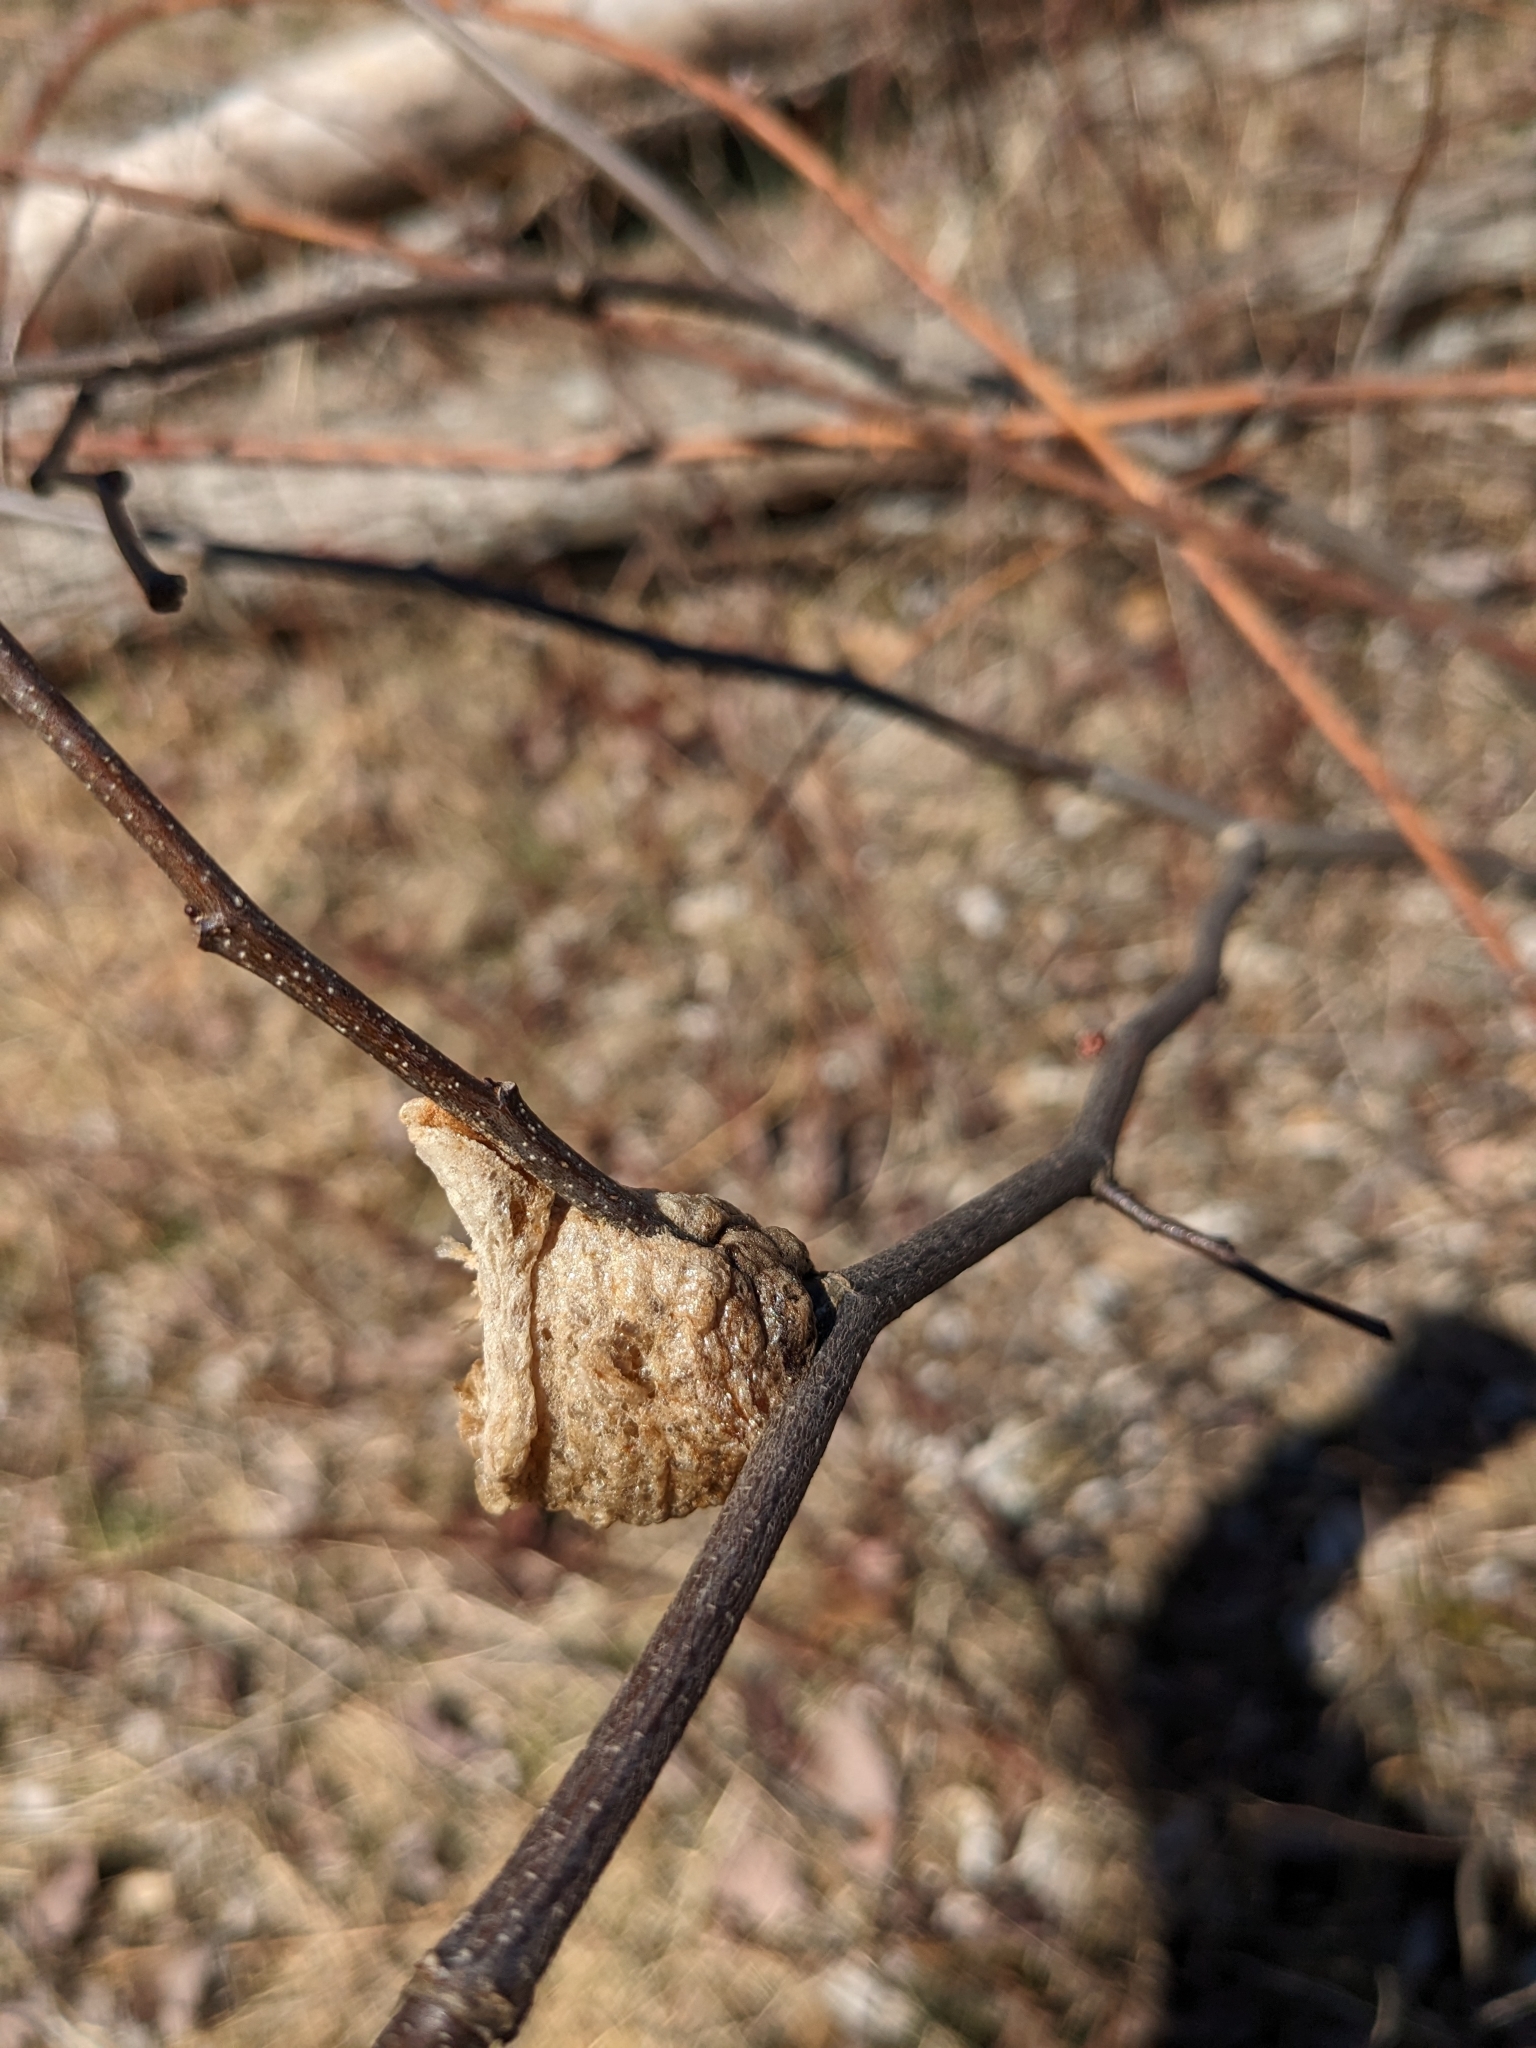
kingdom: Animalia
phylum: Arthropoda
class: Insecta
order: Mantodea
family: Mantidae
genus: Tenodera
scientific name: Tenodera sinensis
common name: Chinese mantis
